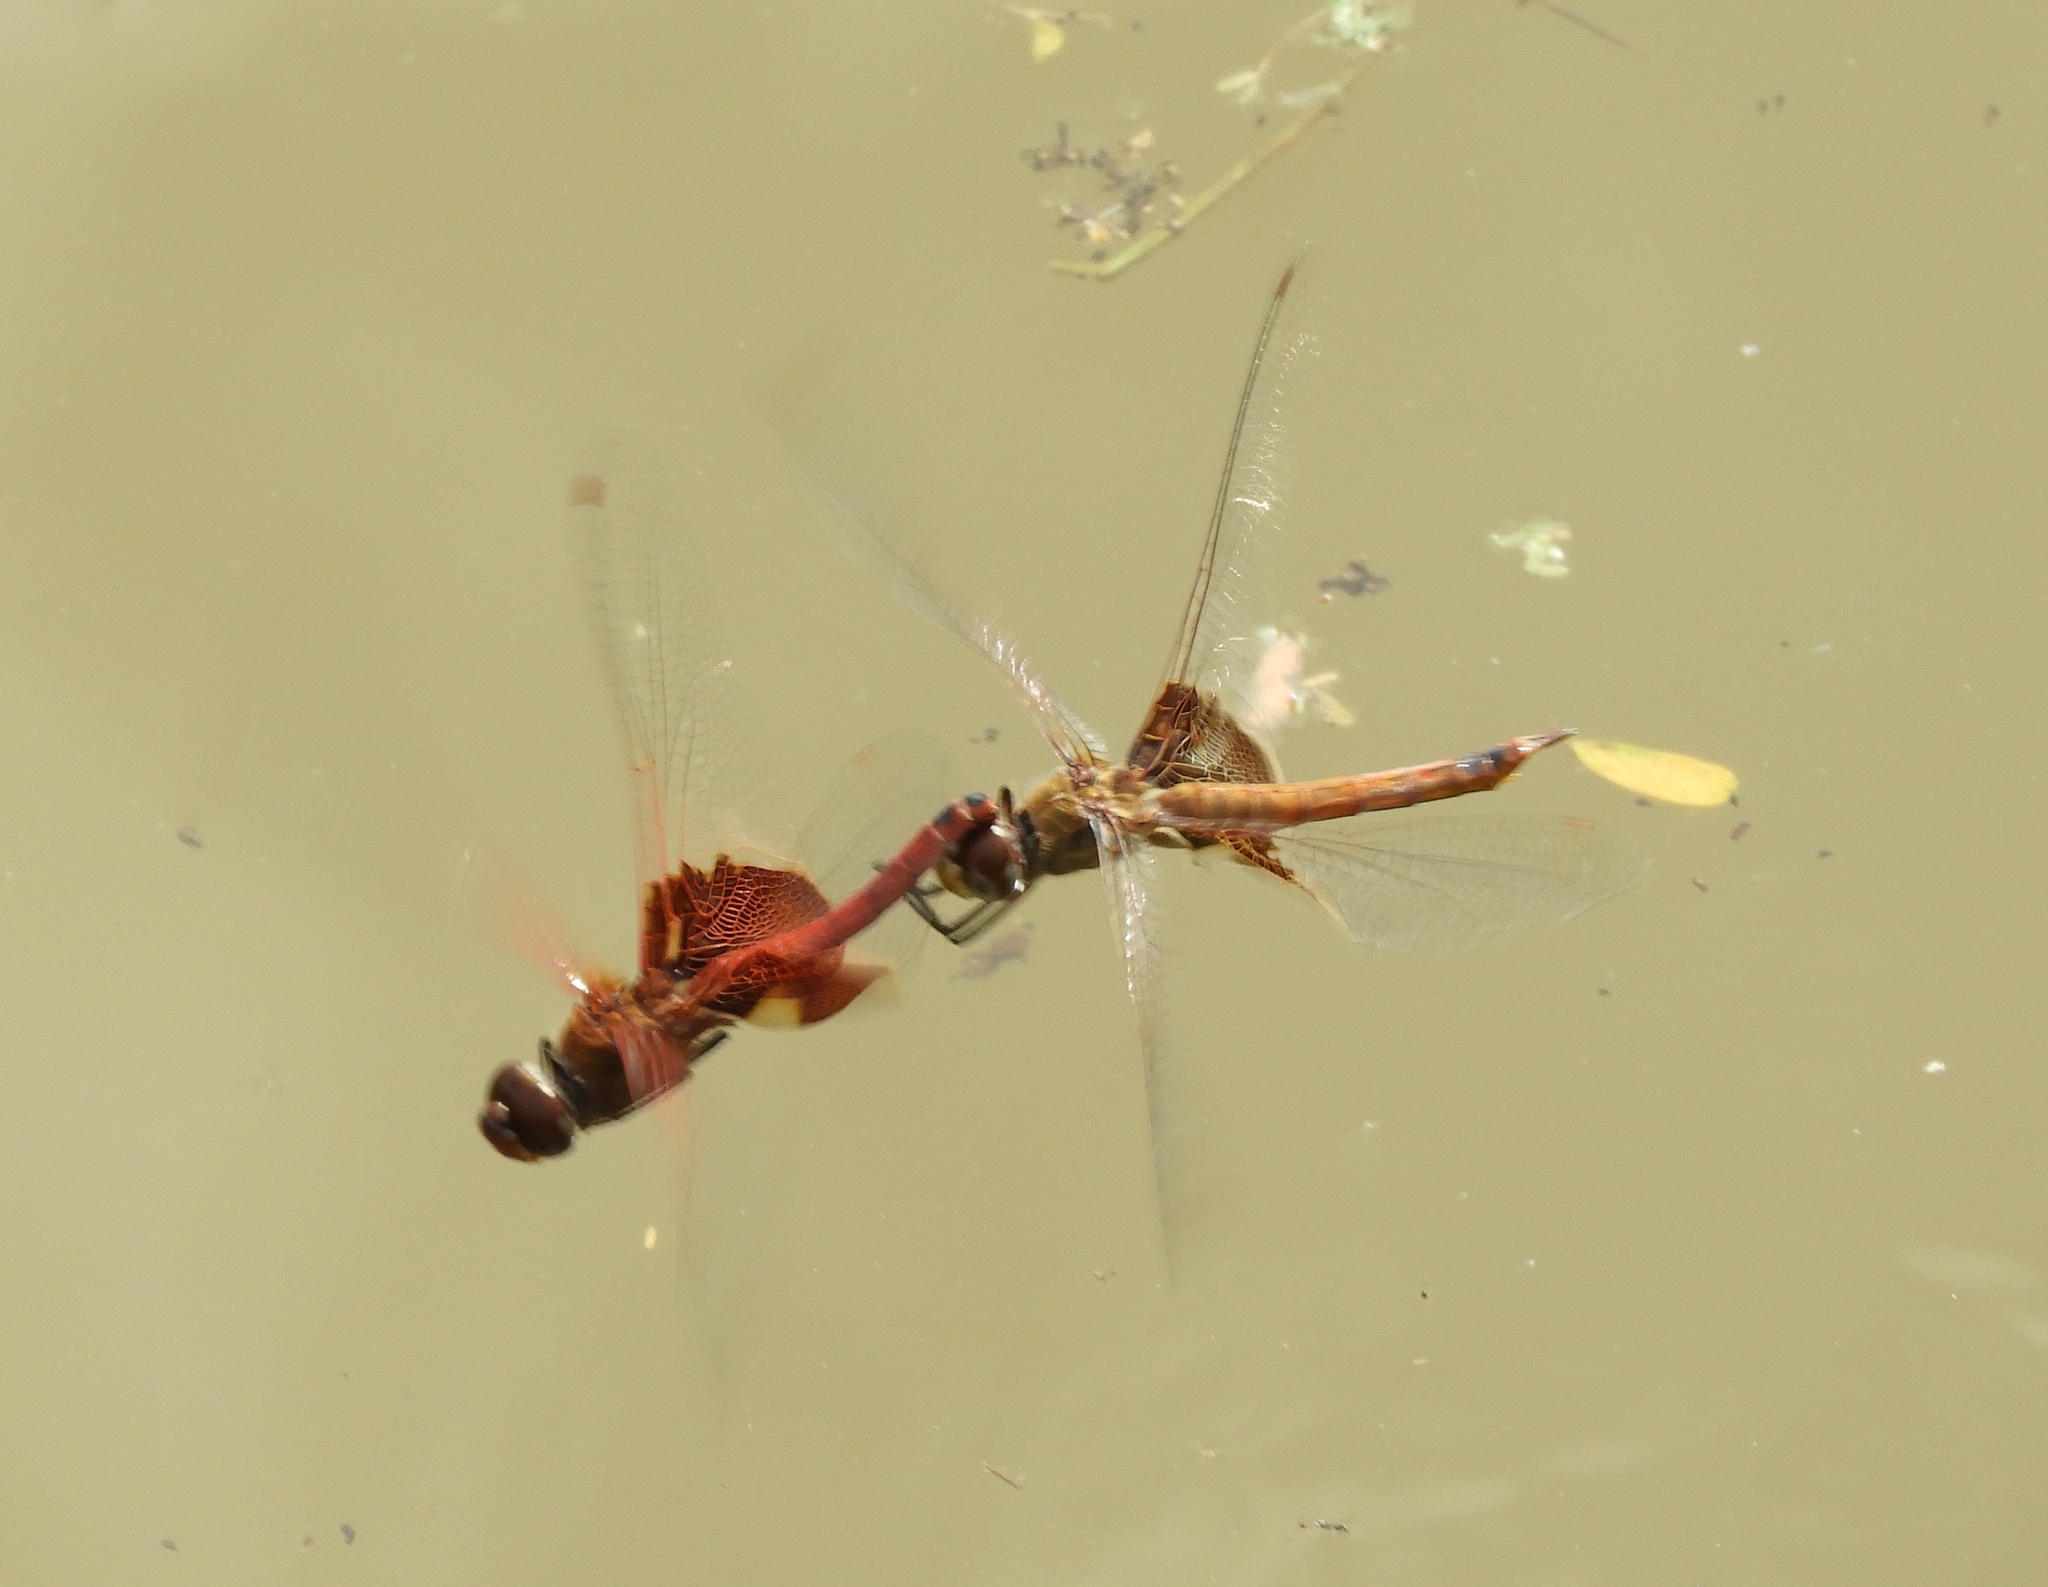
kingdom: Animalia
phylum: Arthropoda
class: Insecta
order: Odonata
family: Libellulidae
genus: Tramea
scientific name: Tramea onusta
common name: Red saddlebags
